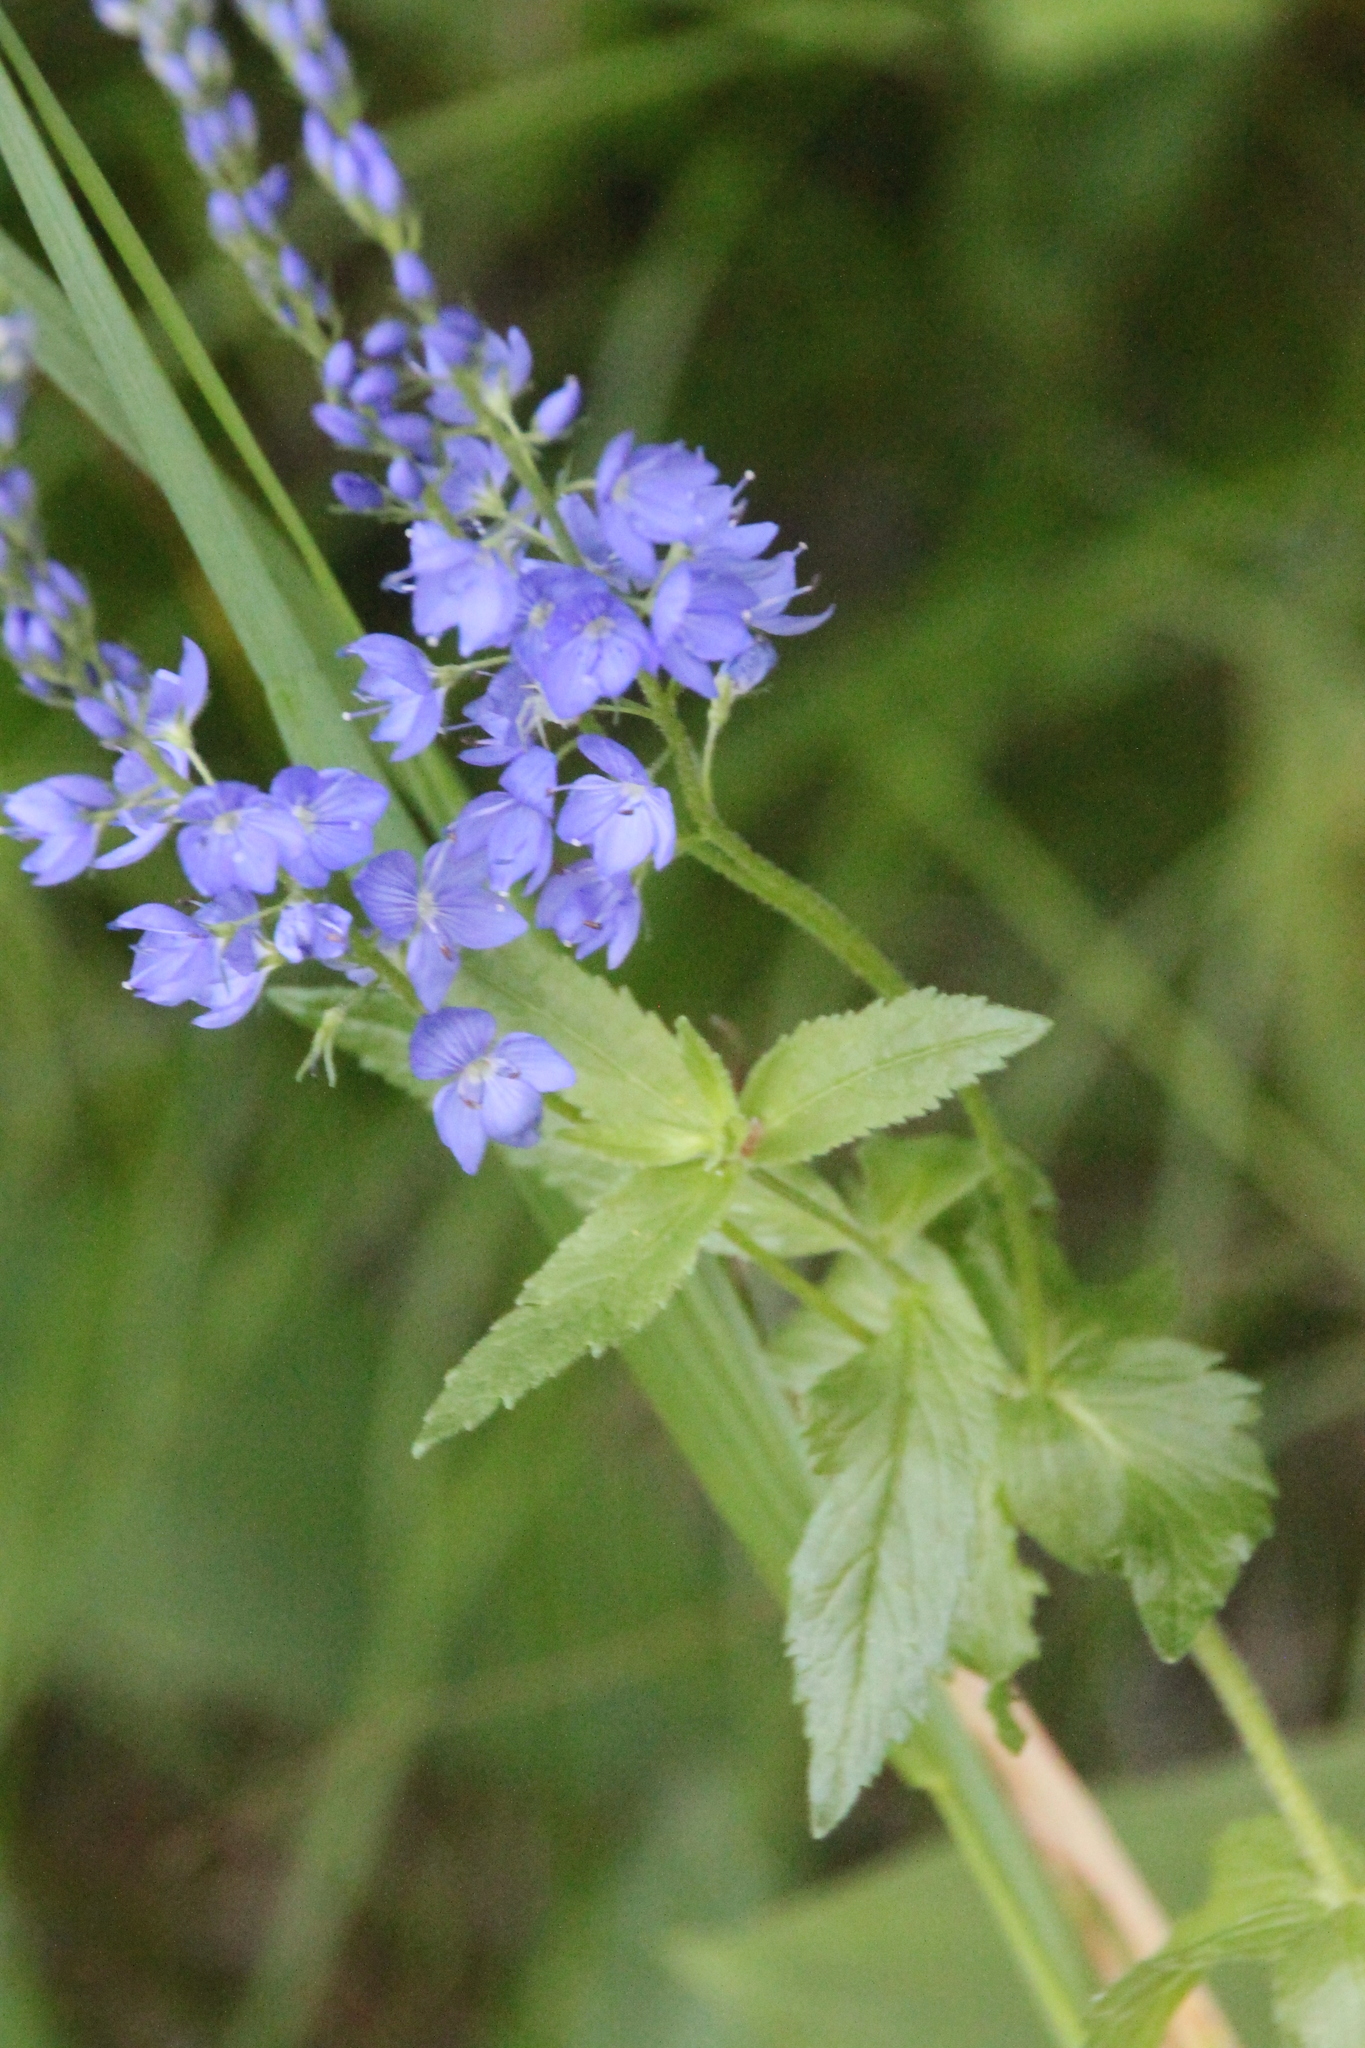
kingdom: Plantae
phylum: Tracheophyta
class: Magnoliopsida
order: Lamiales
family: Plantaginaceae
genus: Veronica
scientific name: Veronica teucrium
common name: Large speedwell
